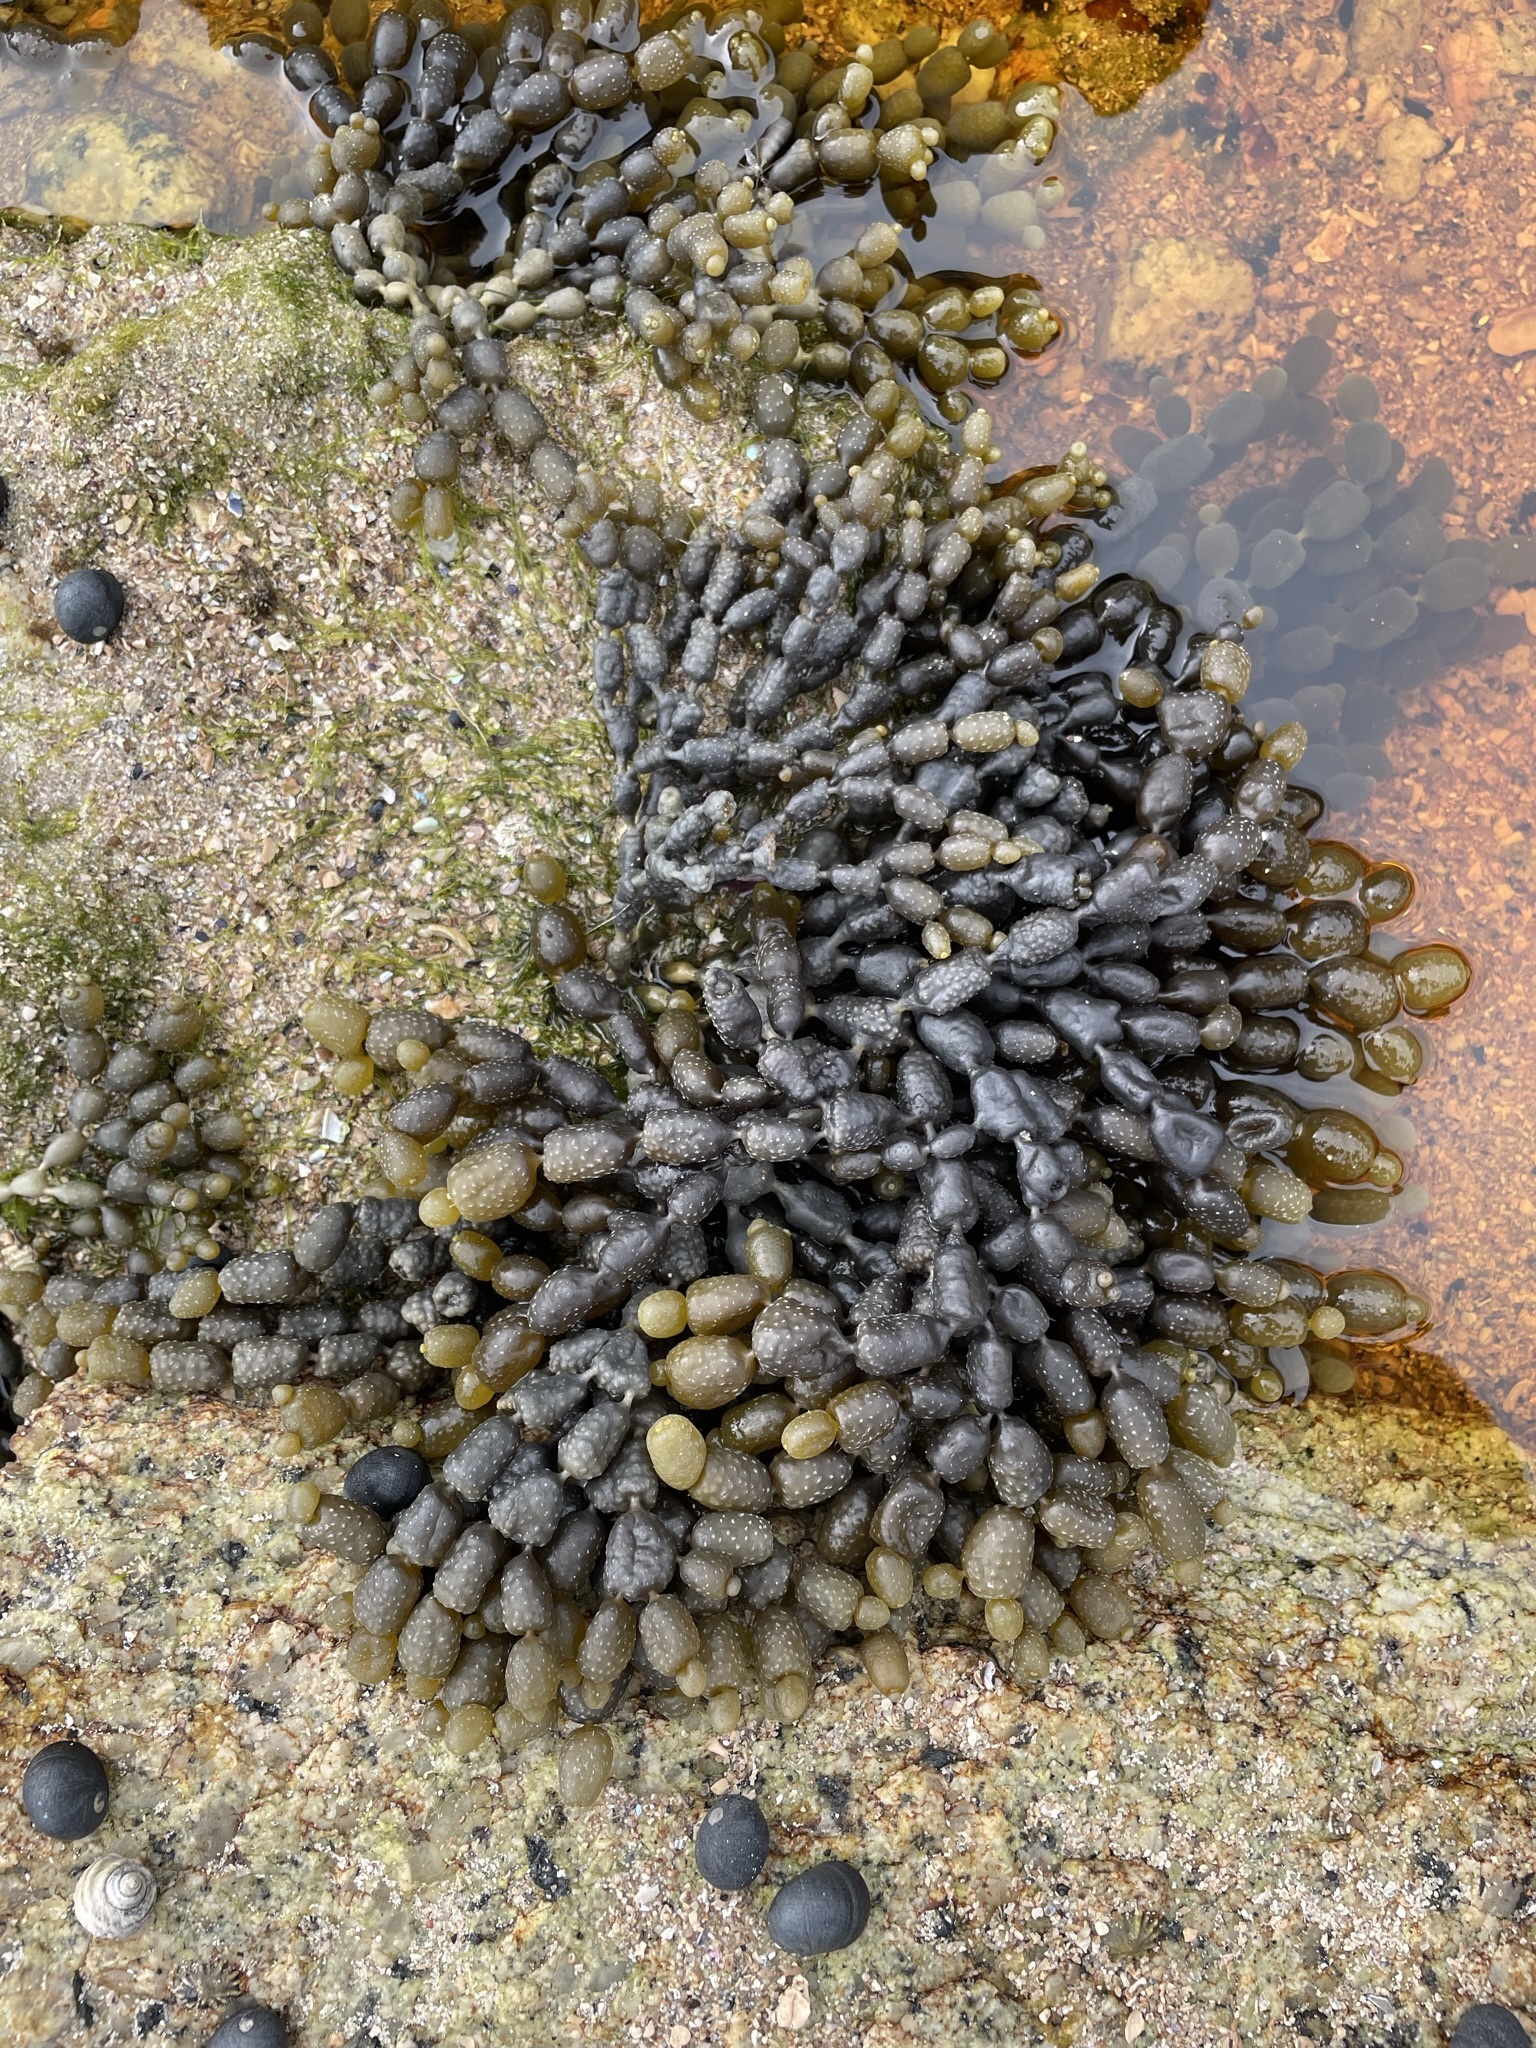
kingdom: Chromista
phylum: Ochrophyta
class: Phaeophyceae
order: Fucales
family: Hormosiraceae
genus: Hormosira
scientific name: Hormosira banksii
